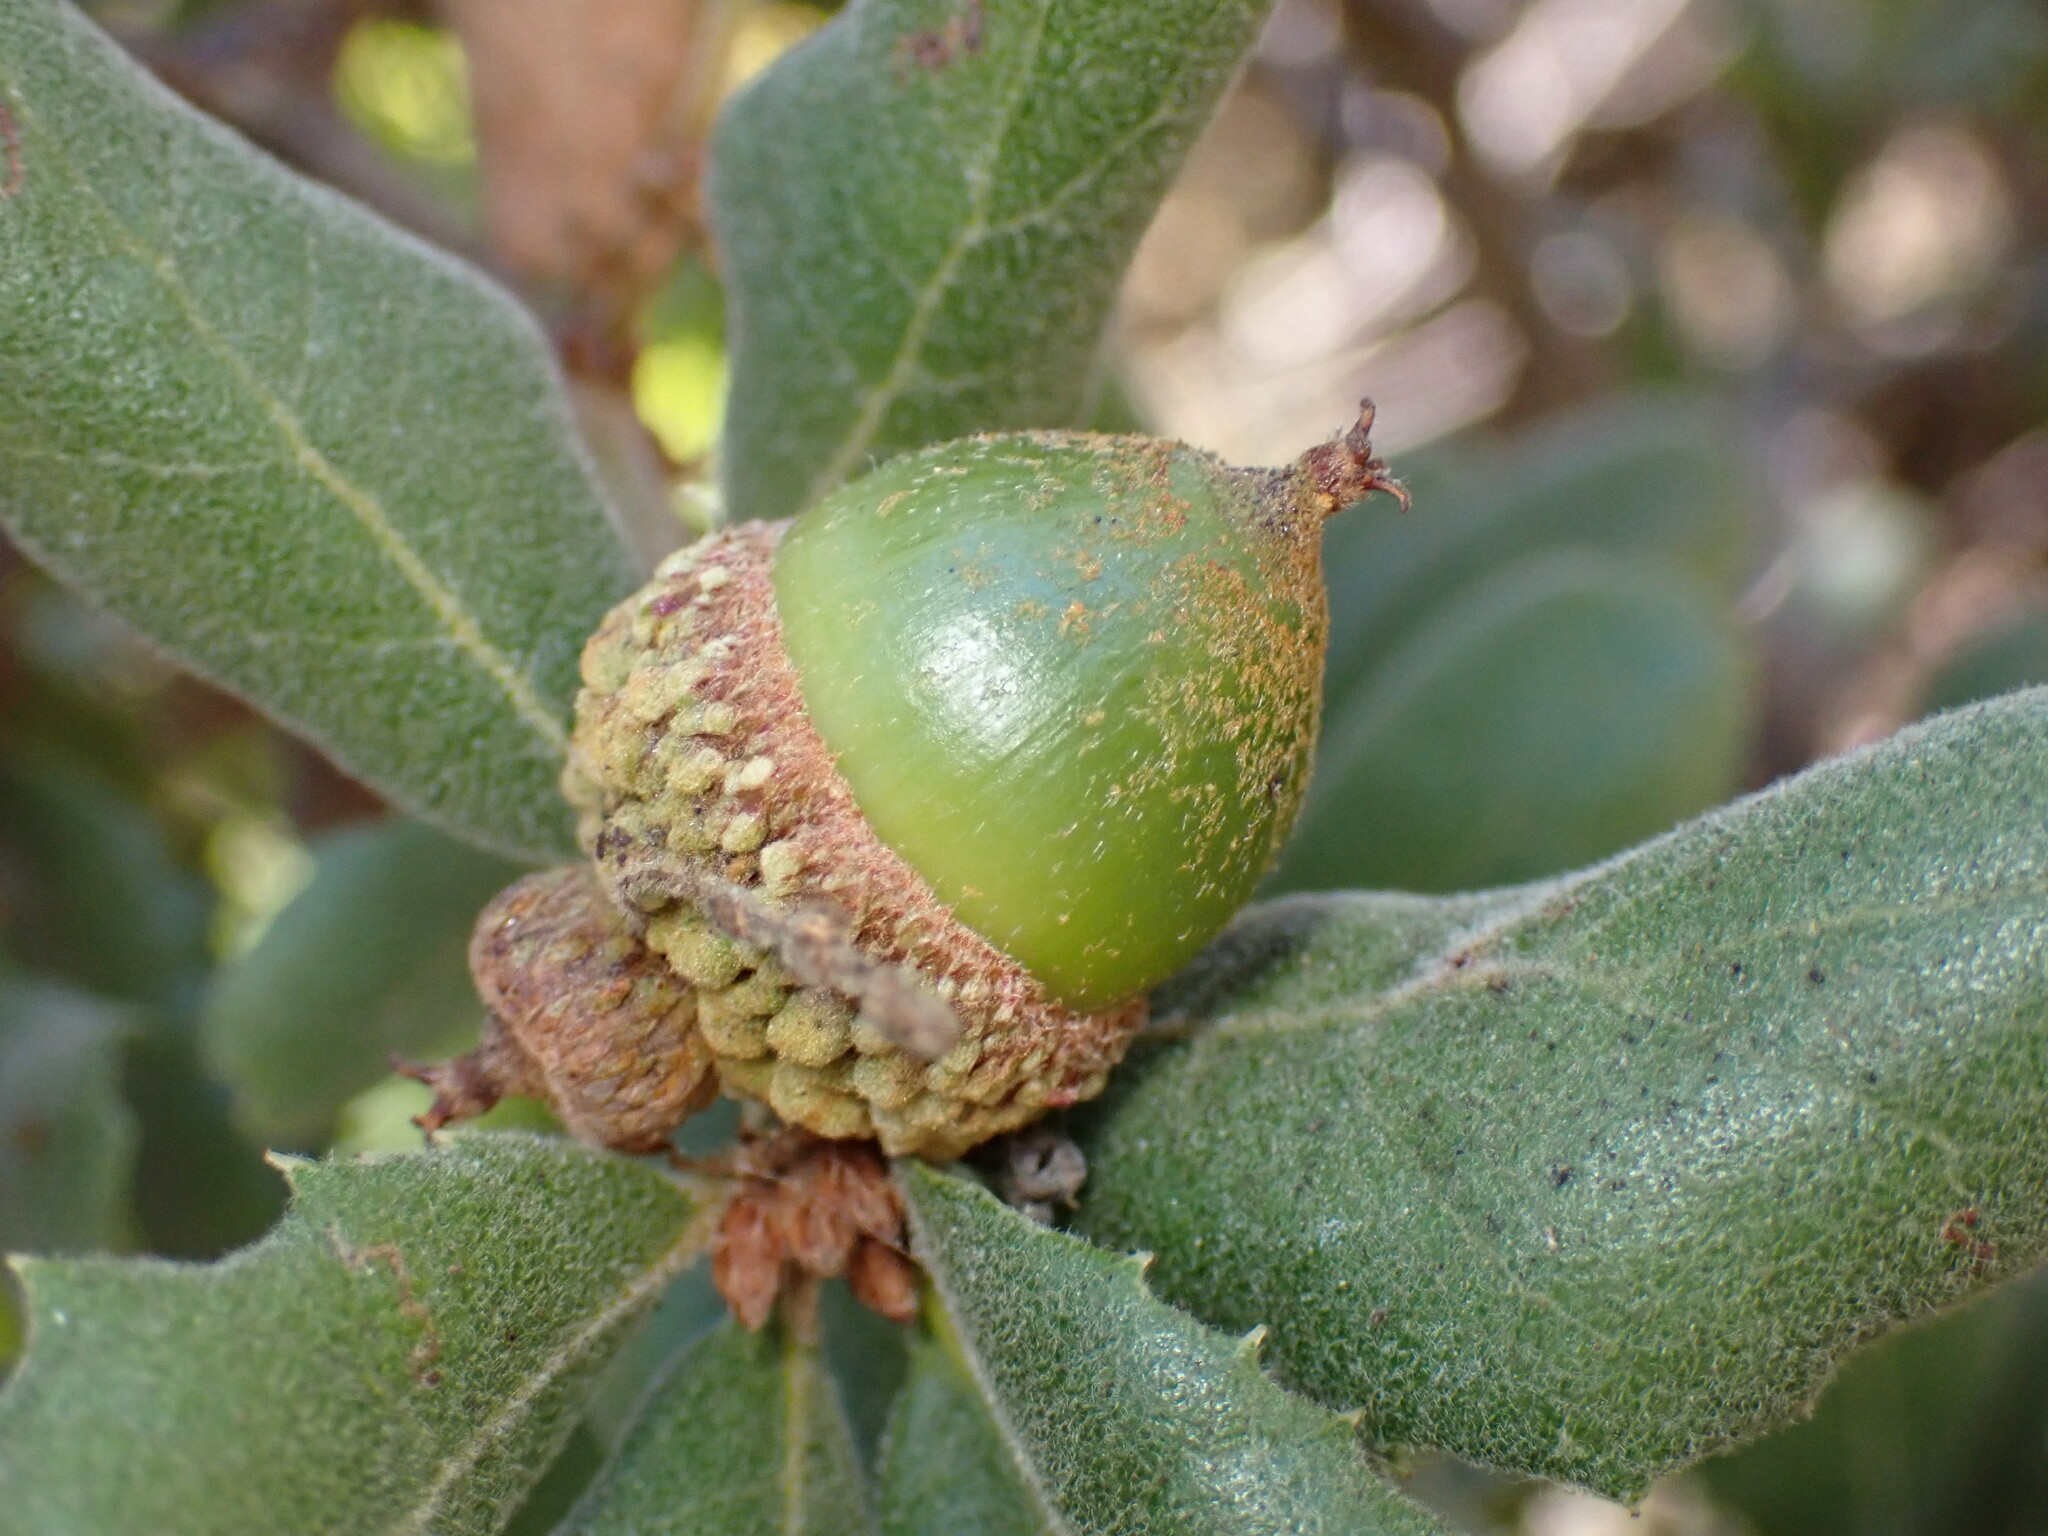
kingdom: Plantae
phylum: Tracheophyta
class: Magnoliopsida
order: Fagales
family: Fagaceae
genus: Quercus
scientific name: Quercus durata
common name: Leather oak
